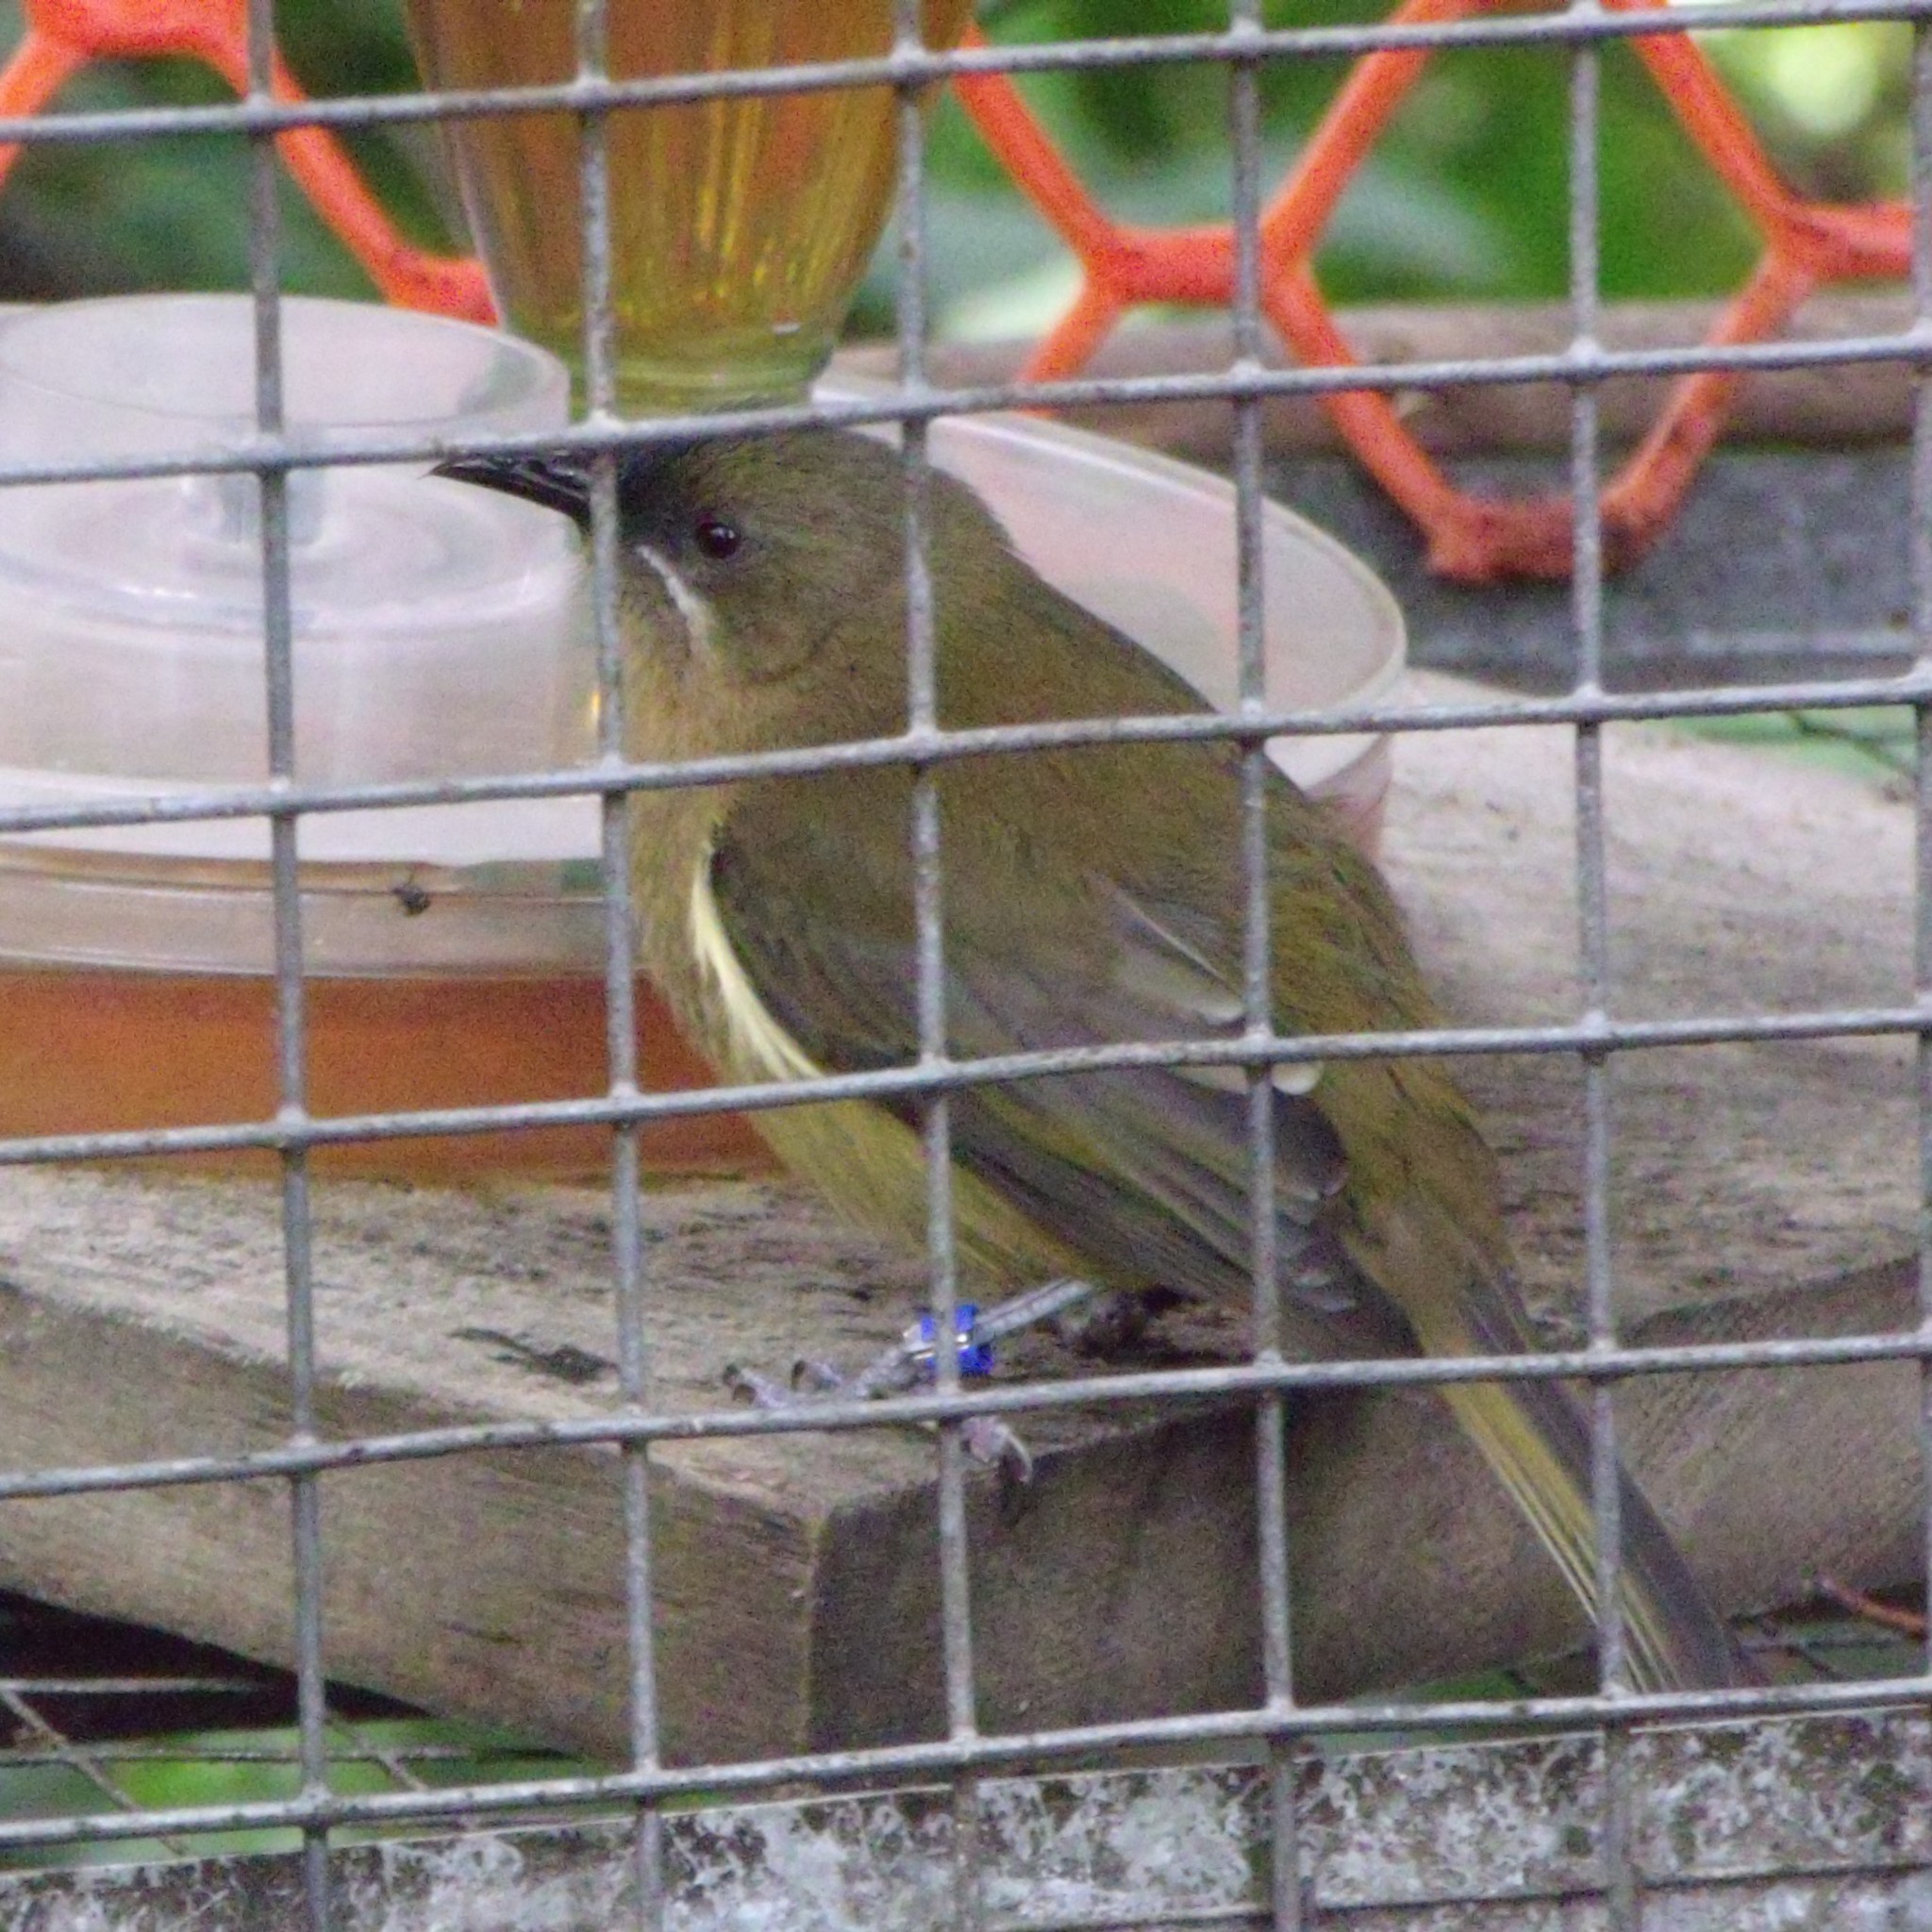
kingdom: Animalia
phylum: Chordata
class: Aves
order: Passeriformes
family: Meliphagidae
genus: Anthornis
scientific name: Anthornis melanura
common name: New zealand bellbird
